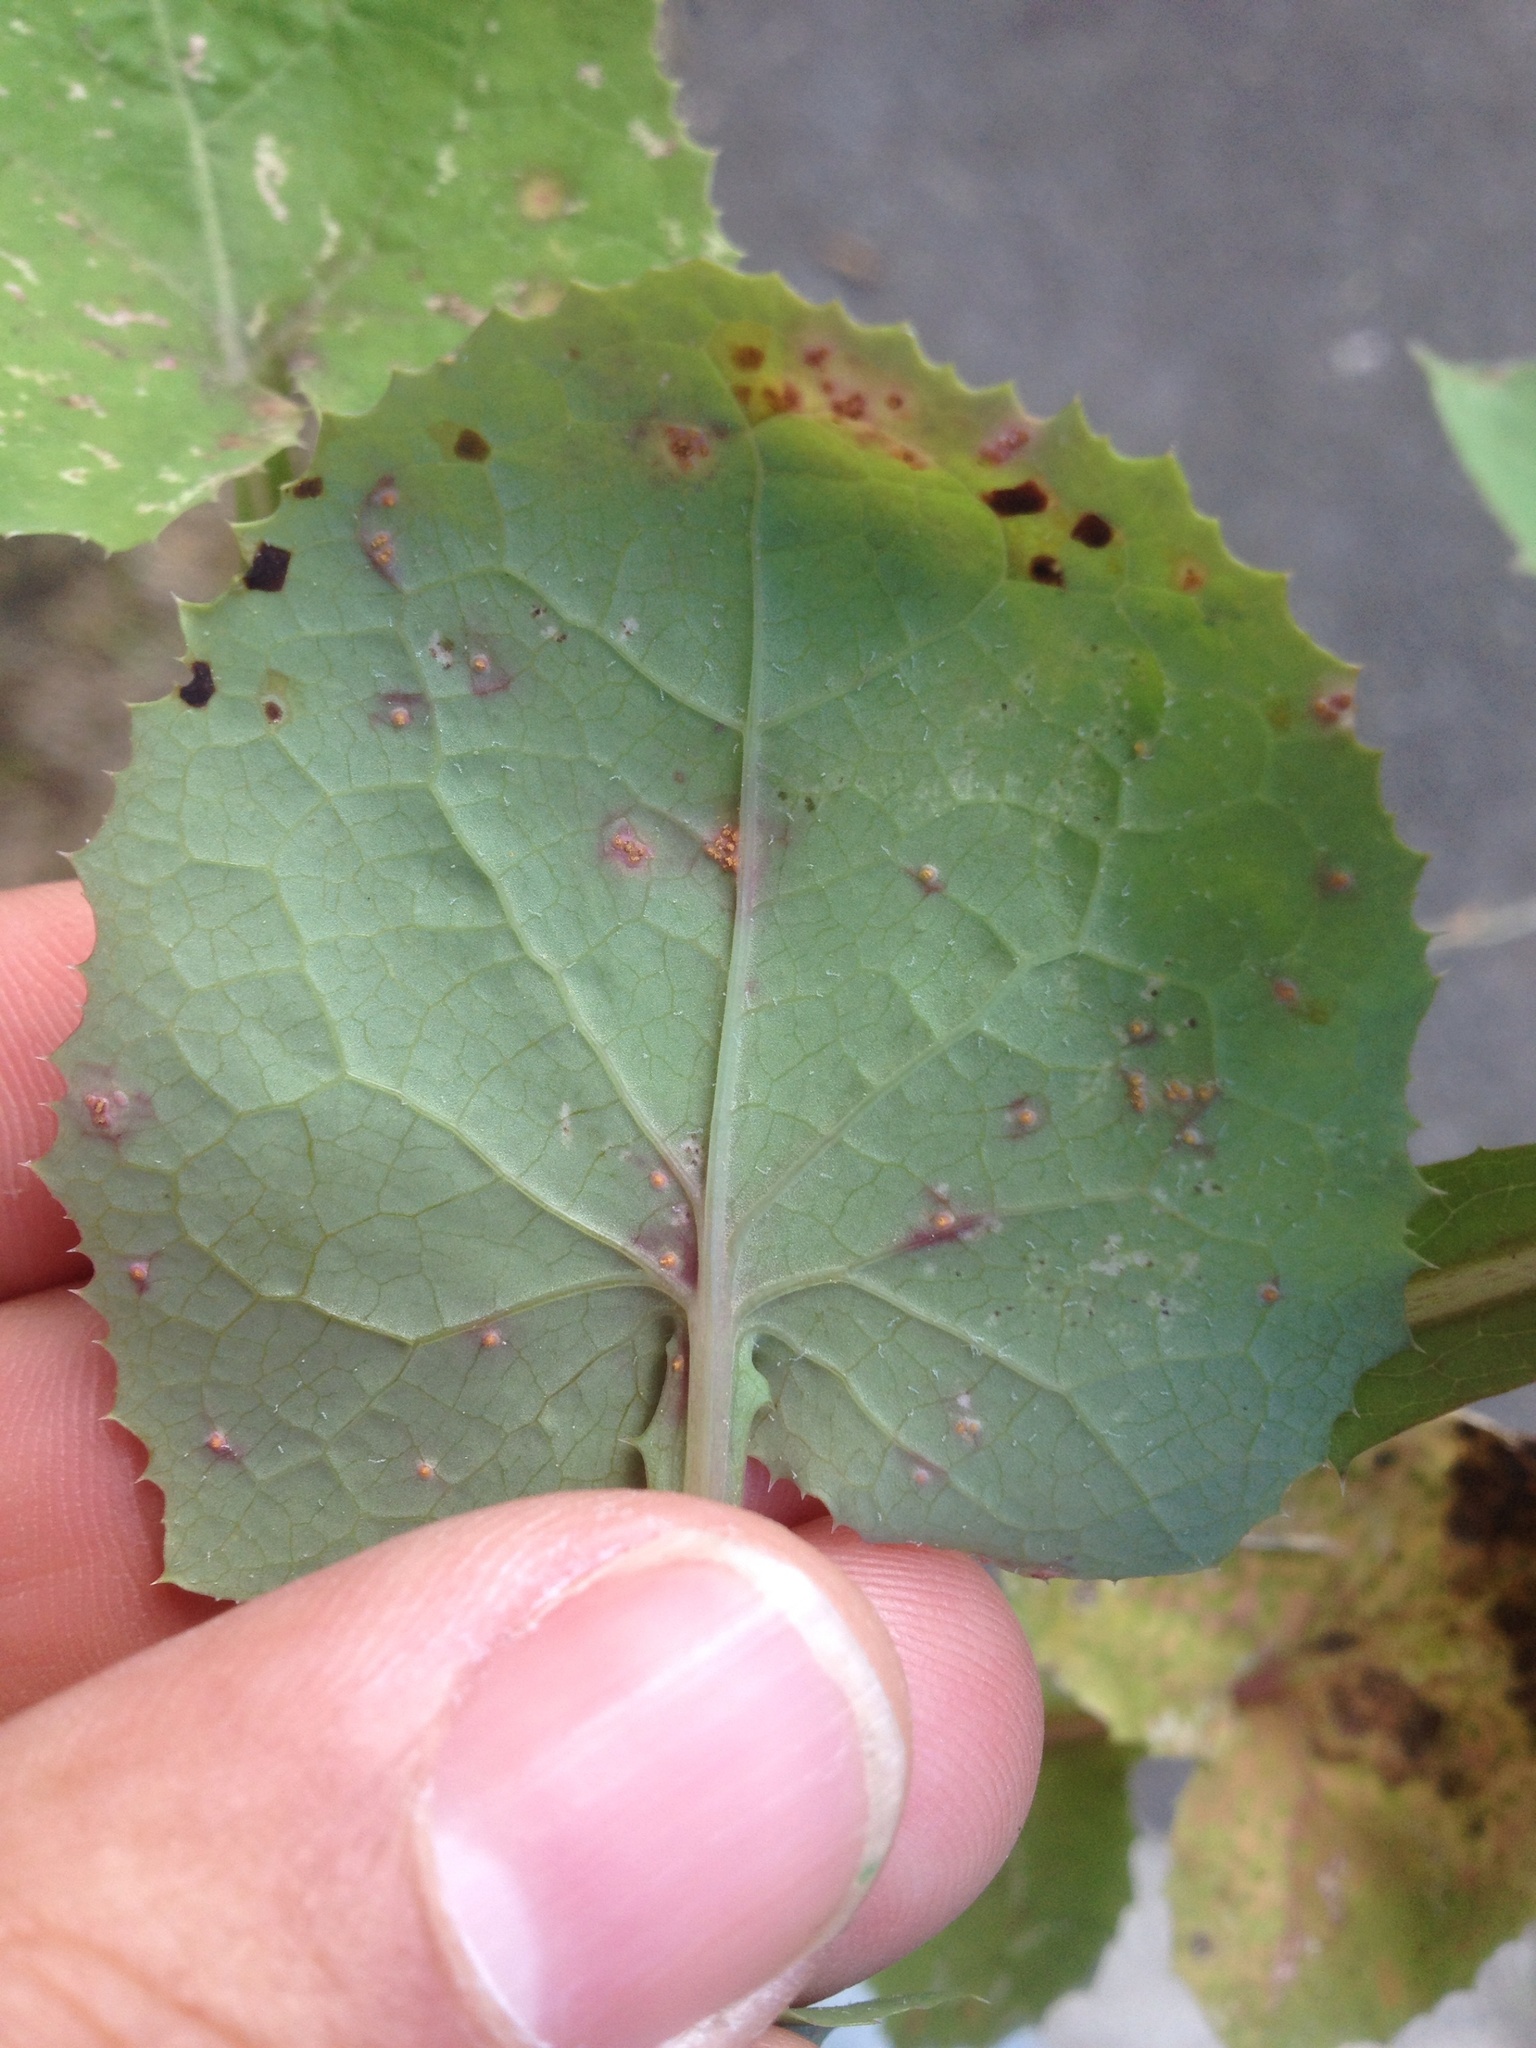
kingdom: Fungi
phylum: Basidiomycota
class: Pucciniomycetes
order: Pucciniales
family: Pucciniaceae
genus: Peristemma
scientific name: Peristemma pseudosphaeria
